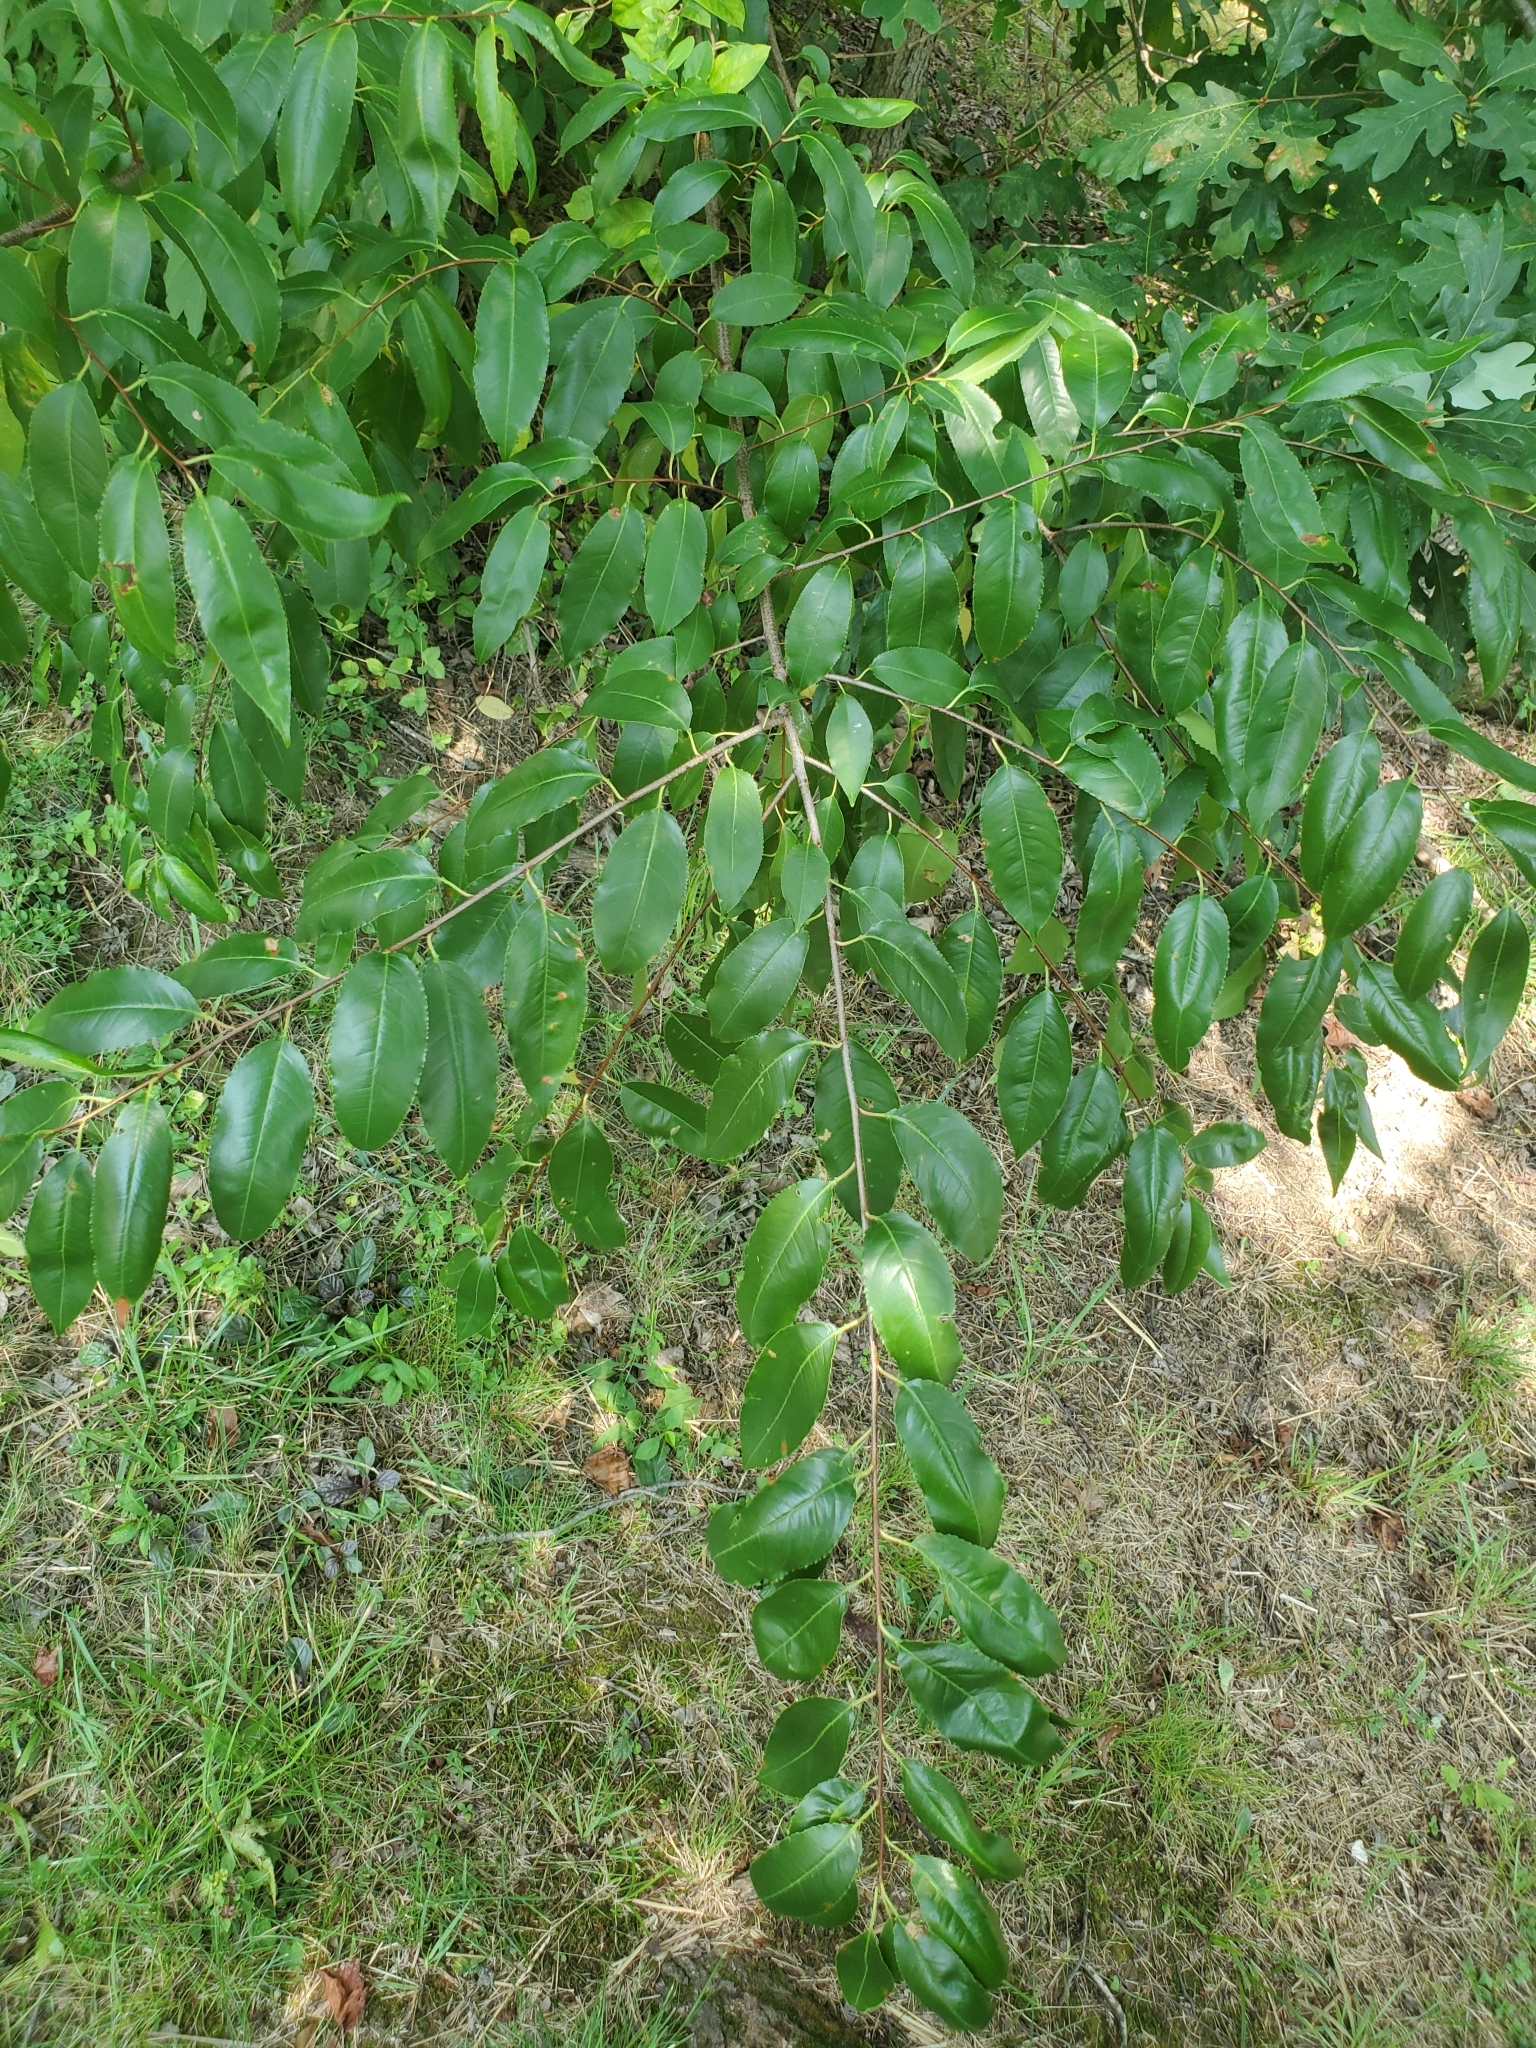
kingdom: Plantae
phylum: Tracheophyta
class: Magnoliopsida
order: Rosales
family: Rosaceae
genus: Prunus
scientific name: Prunus serotina
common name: Black cherry
